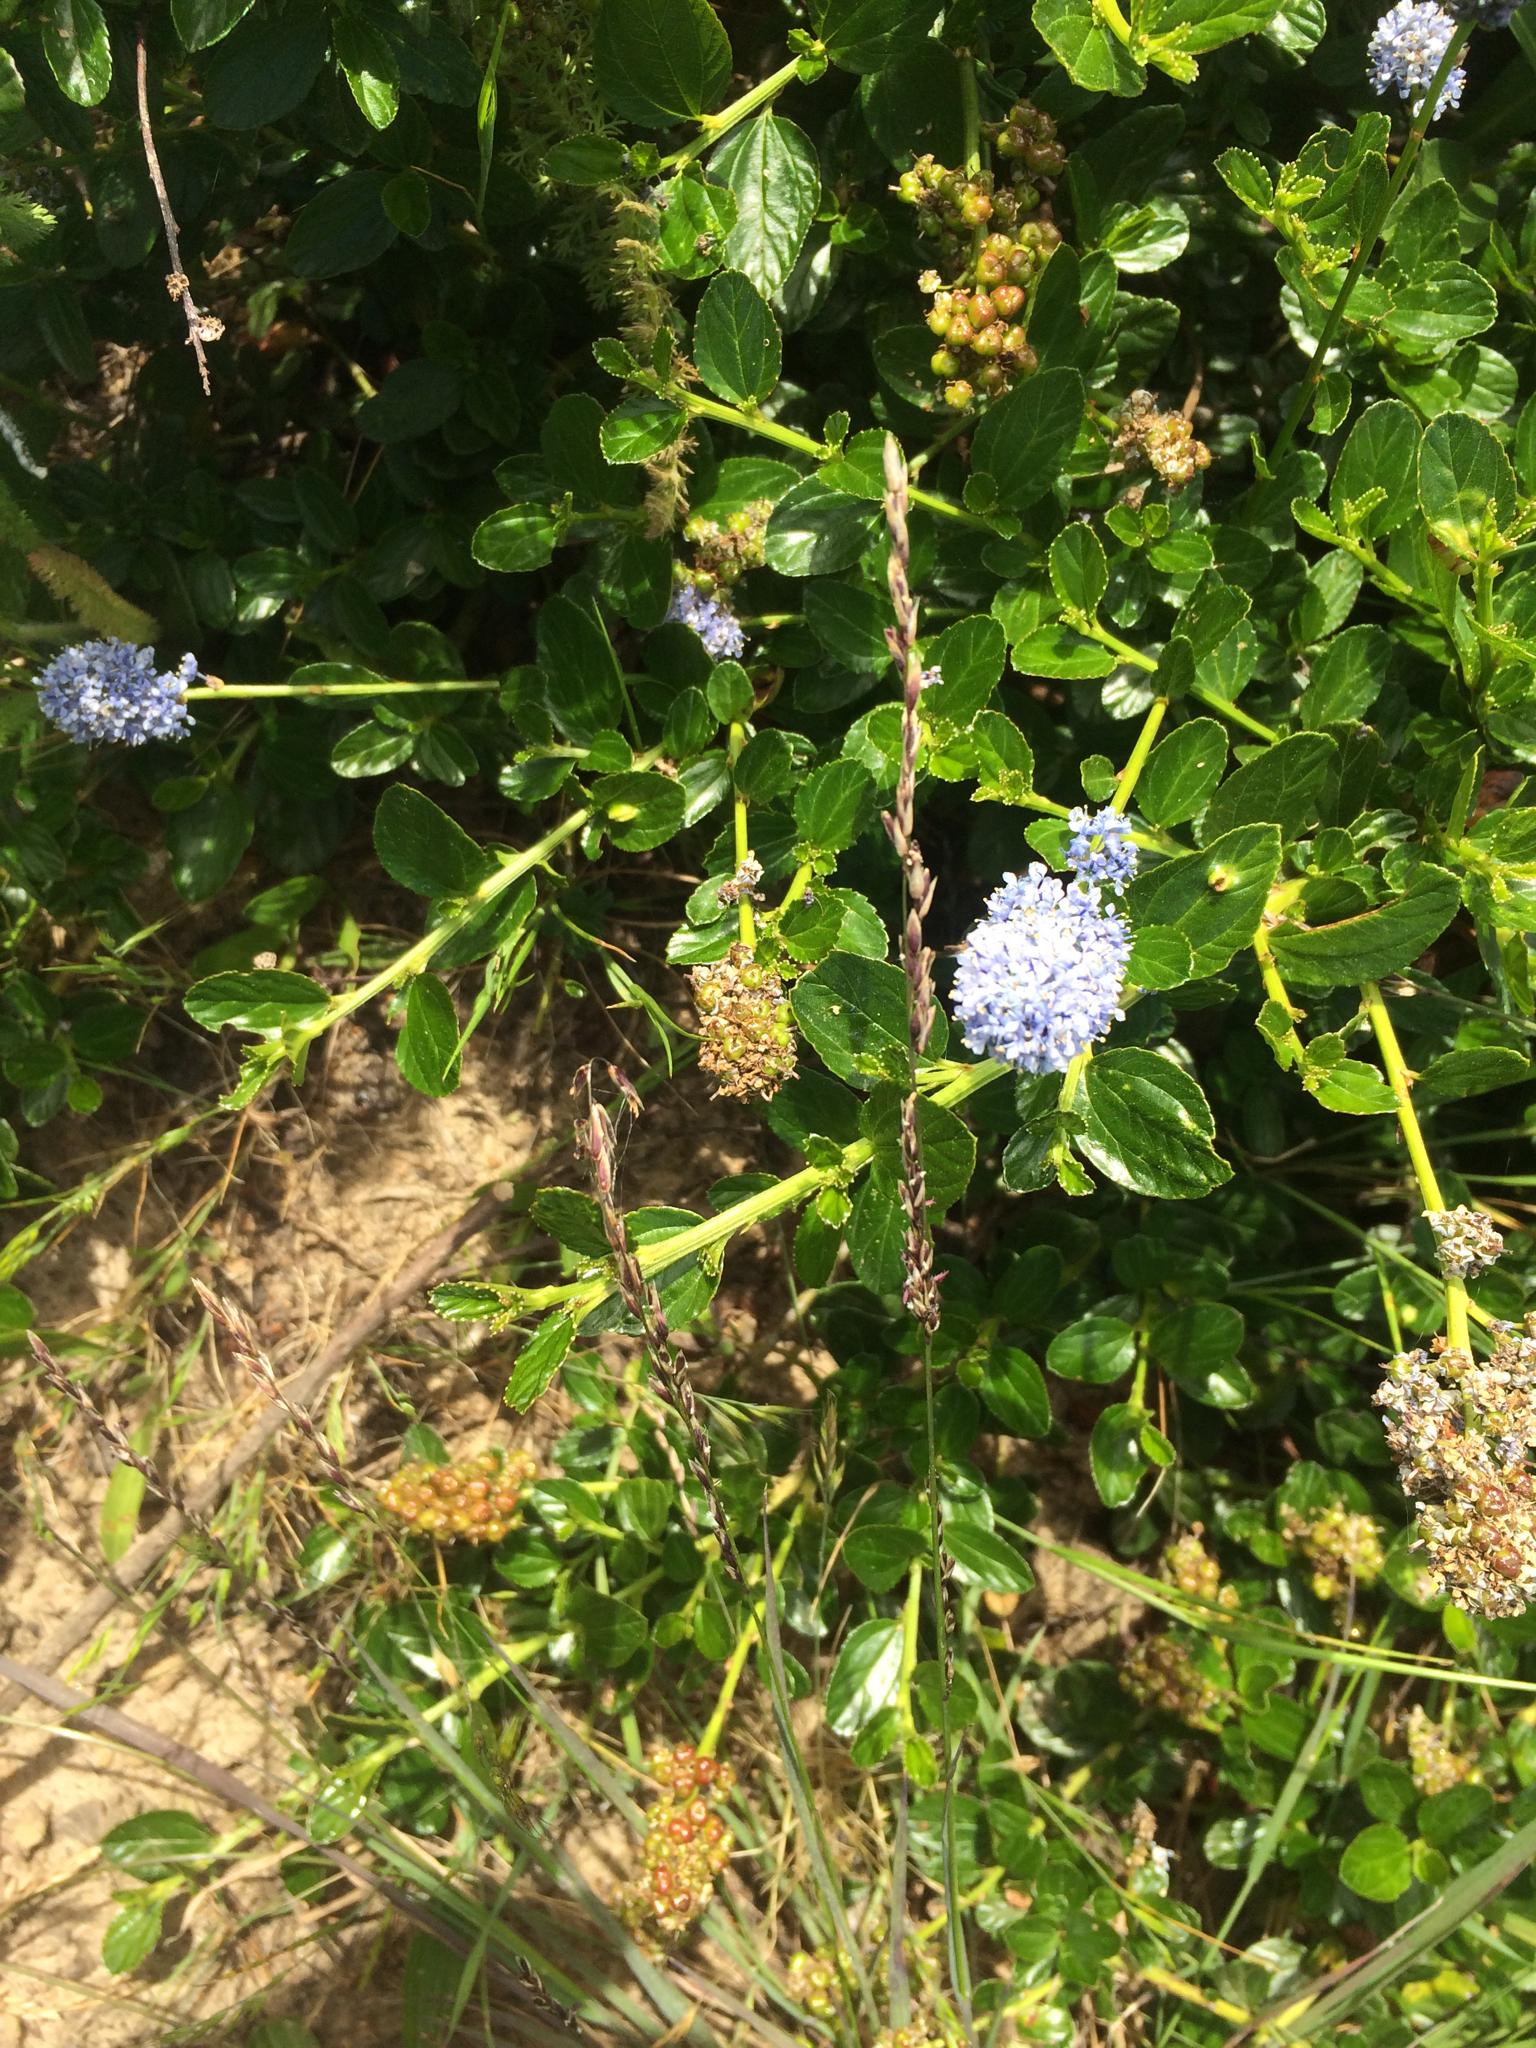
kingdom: Plantae
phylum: Tracheophyta
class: Magnoliopsida
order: Rosales
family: Rhamnaceae
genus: Ceanothus
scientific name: Ceanothus thyrsiflorus
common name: California-lilac
